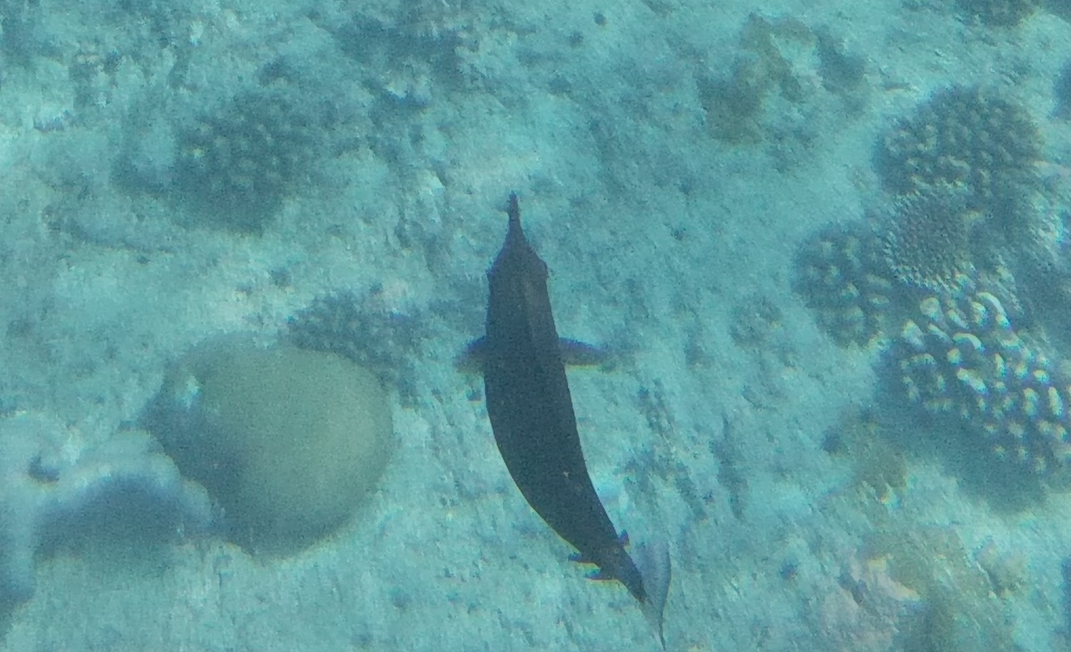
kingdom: Animalia
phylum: Chordata
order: Perciformes
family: Acanthuridae
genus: Naso
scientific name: Naso brevirostris
